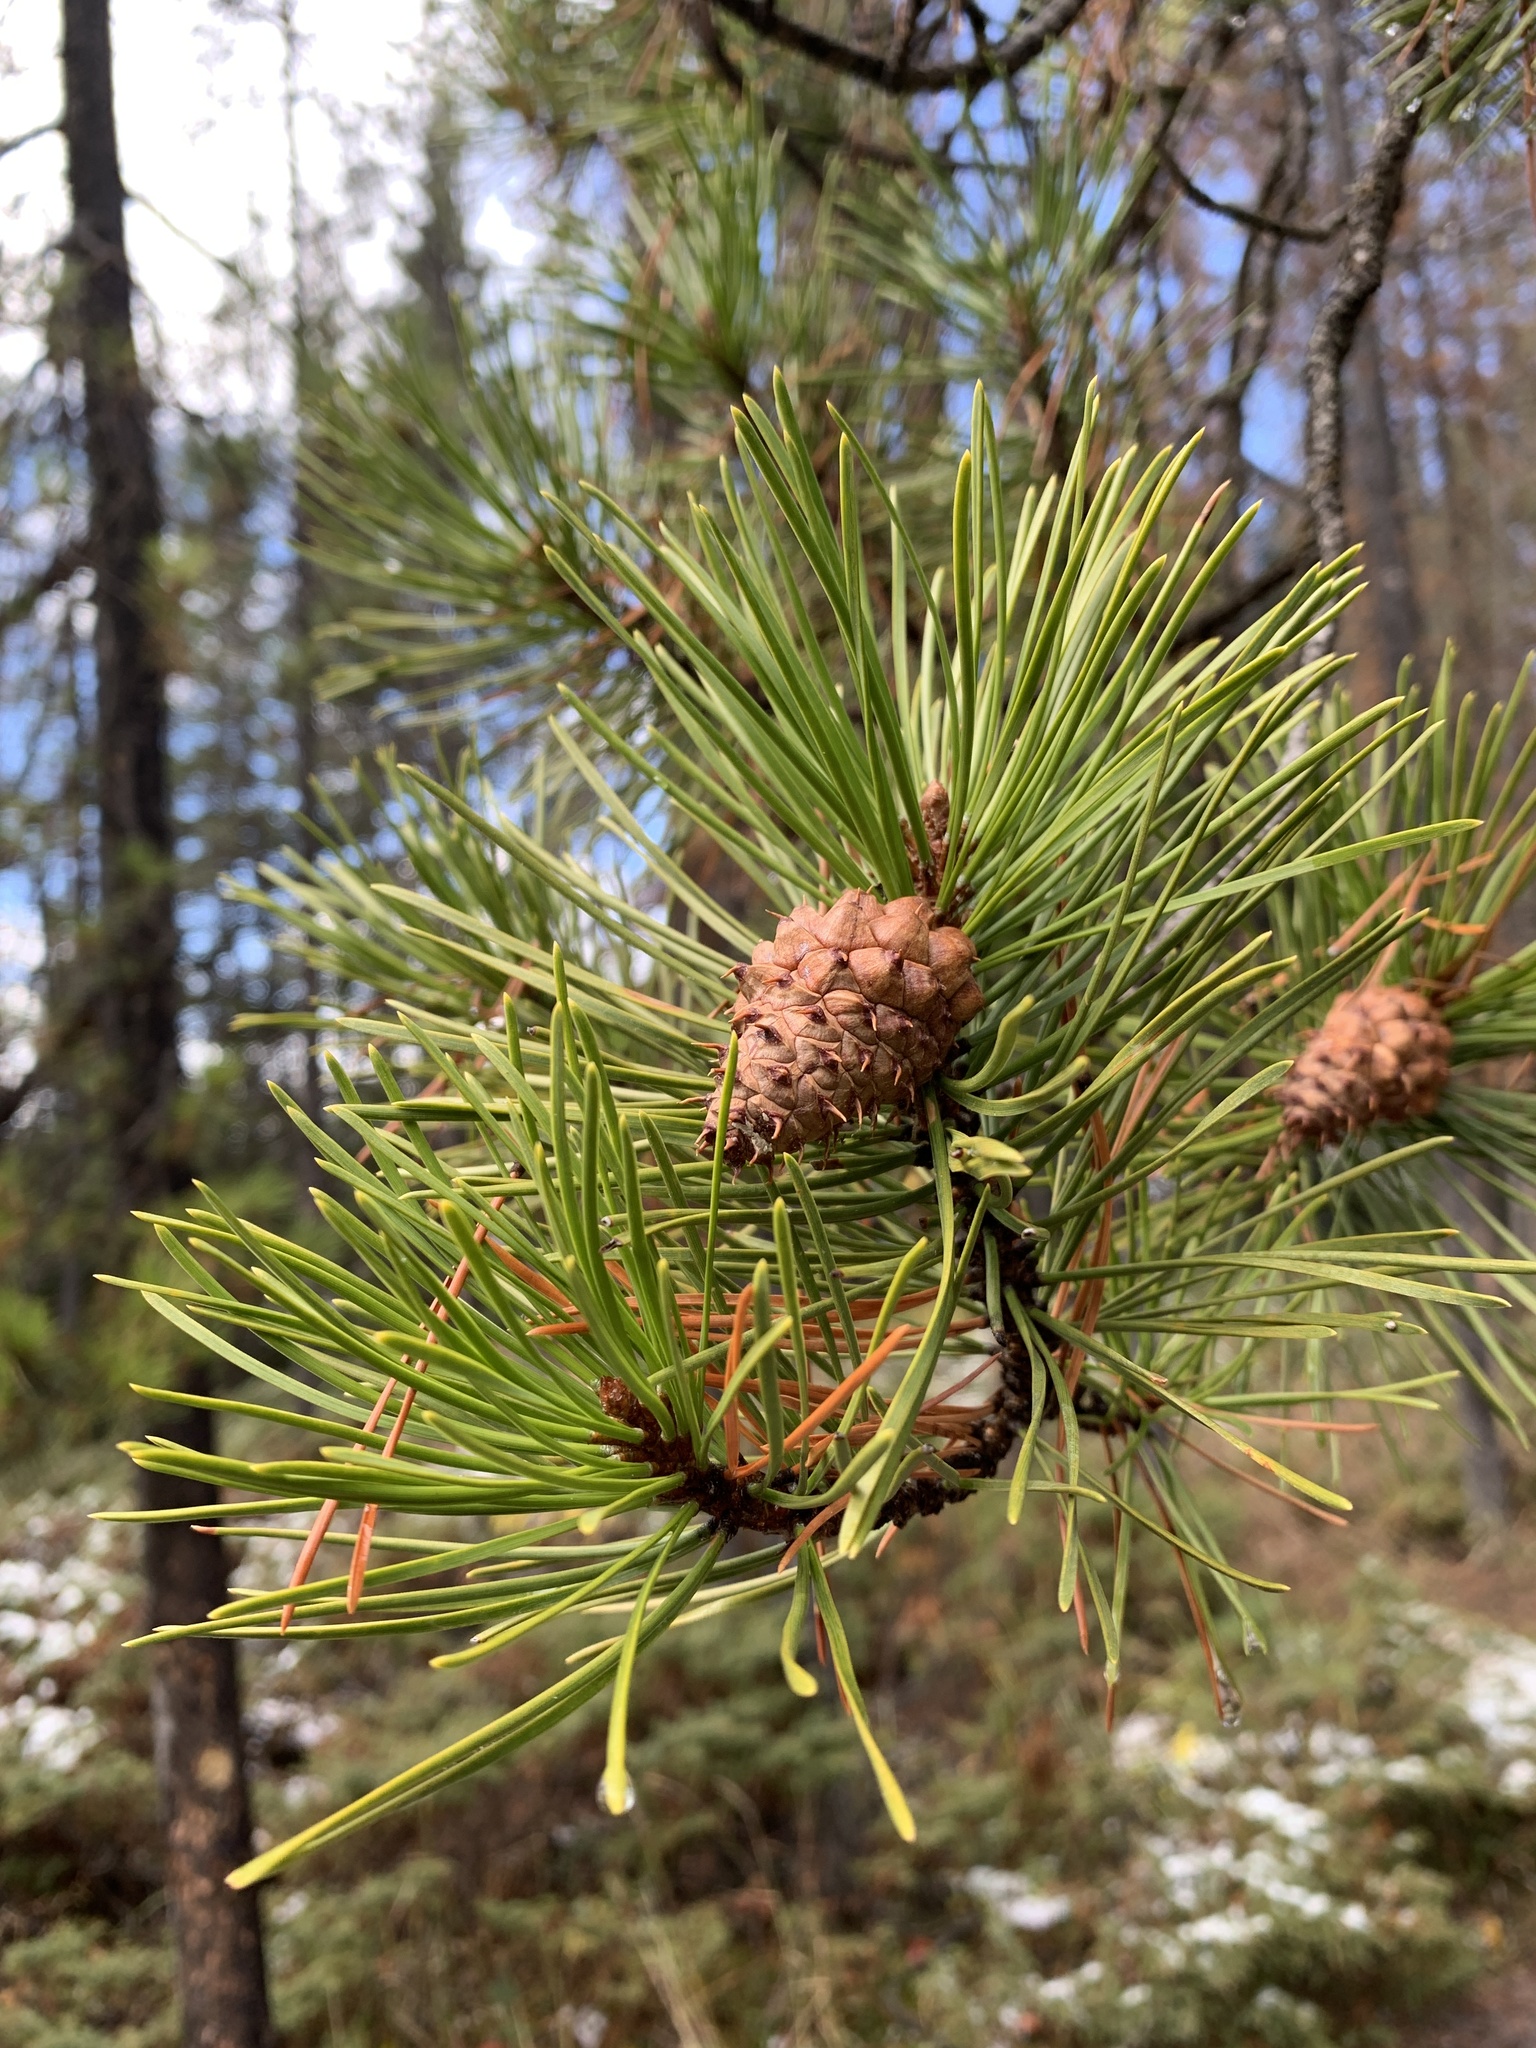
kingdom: Plantae
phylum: Tracheophyta
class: Pinopsida
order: Pinales
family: Pinaceae
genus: Pinus
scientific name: Pinus contorta
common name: Lodgepole pine
